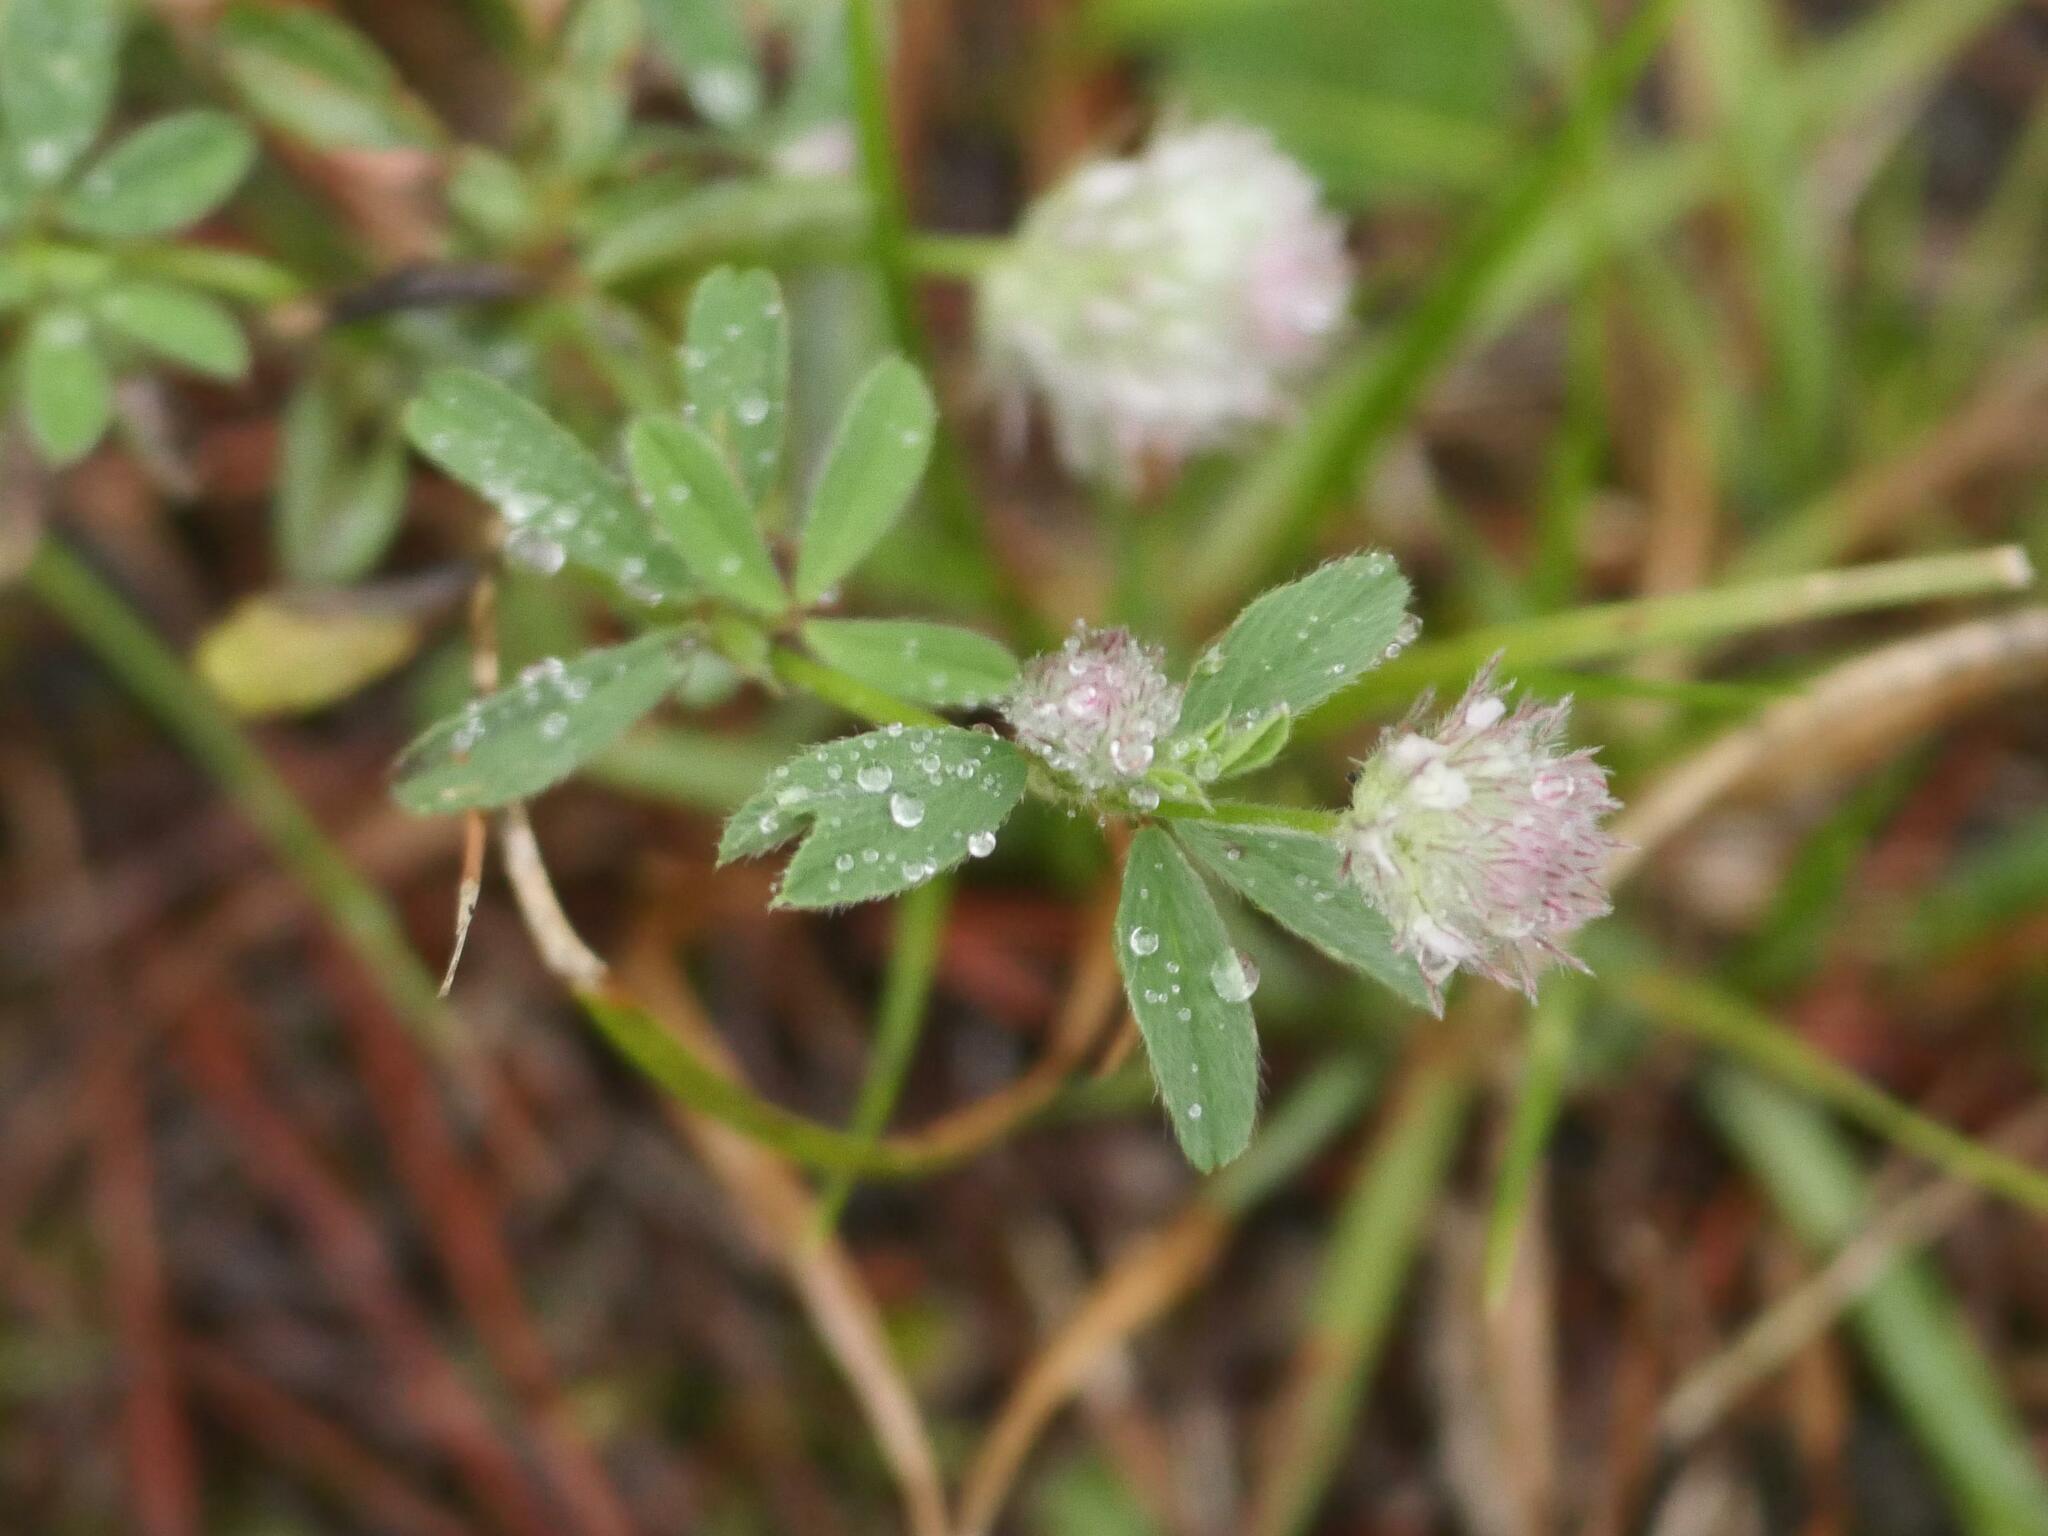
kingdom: Plantae
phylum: Tracheophyta
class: Magnoliopsida
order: Fabales
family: Fabaceae
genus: Trifolium
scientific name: Trifolium arvense
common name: Hare's-foot clover
